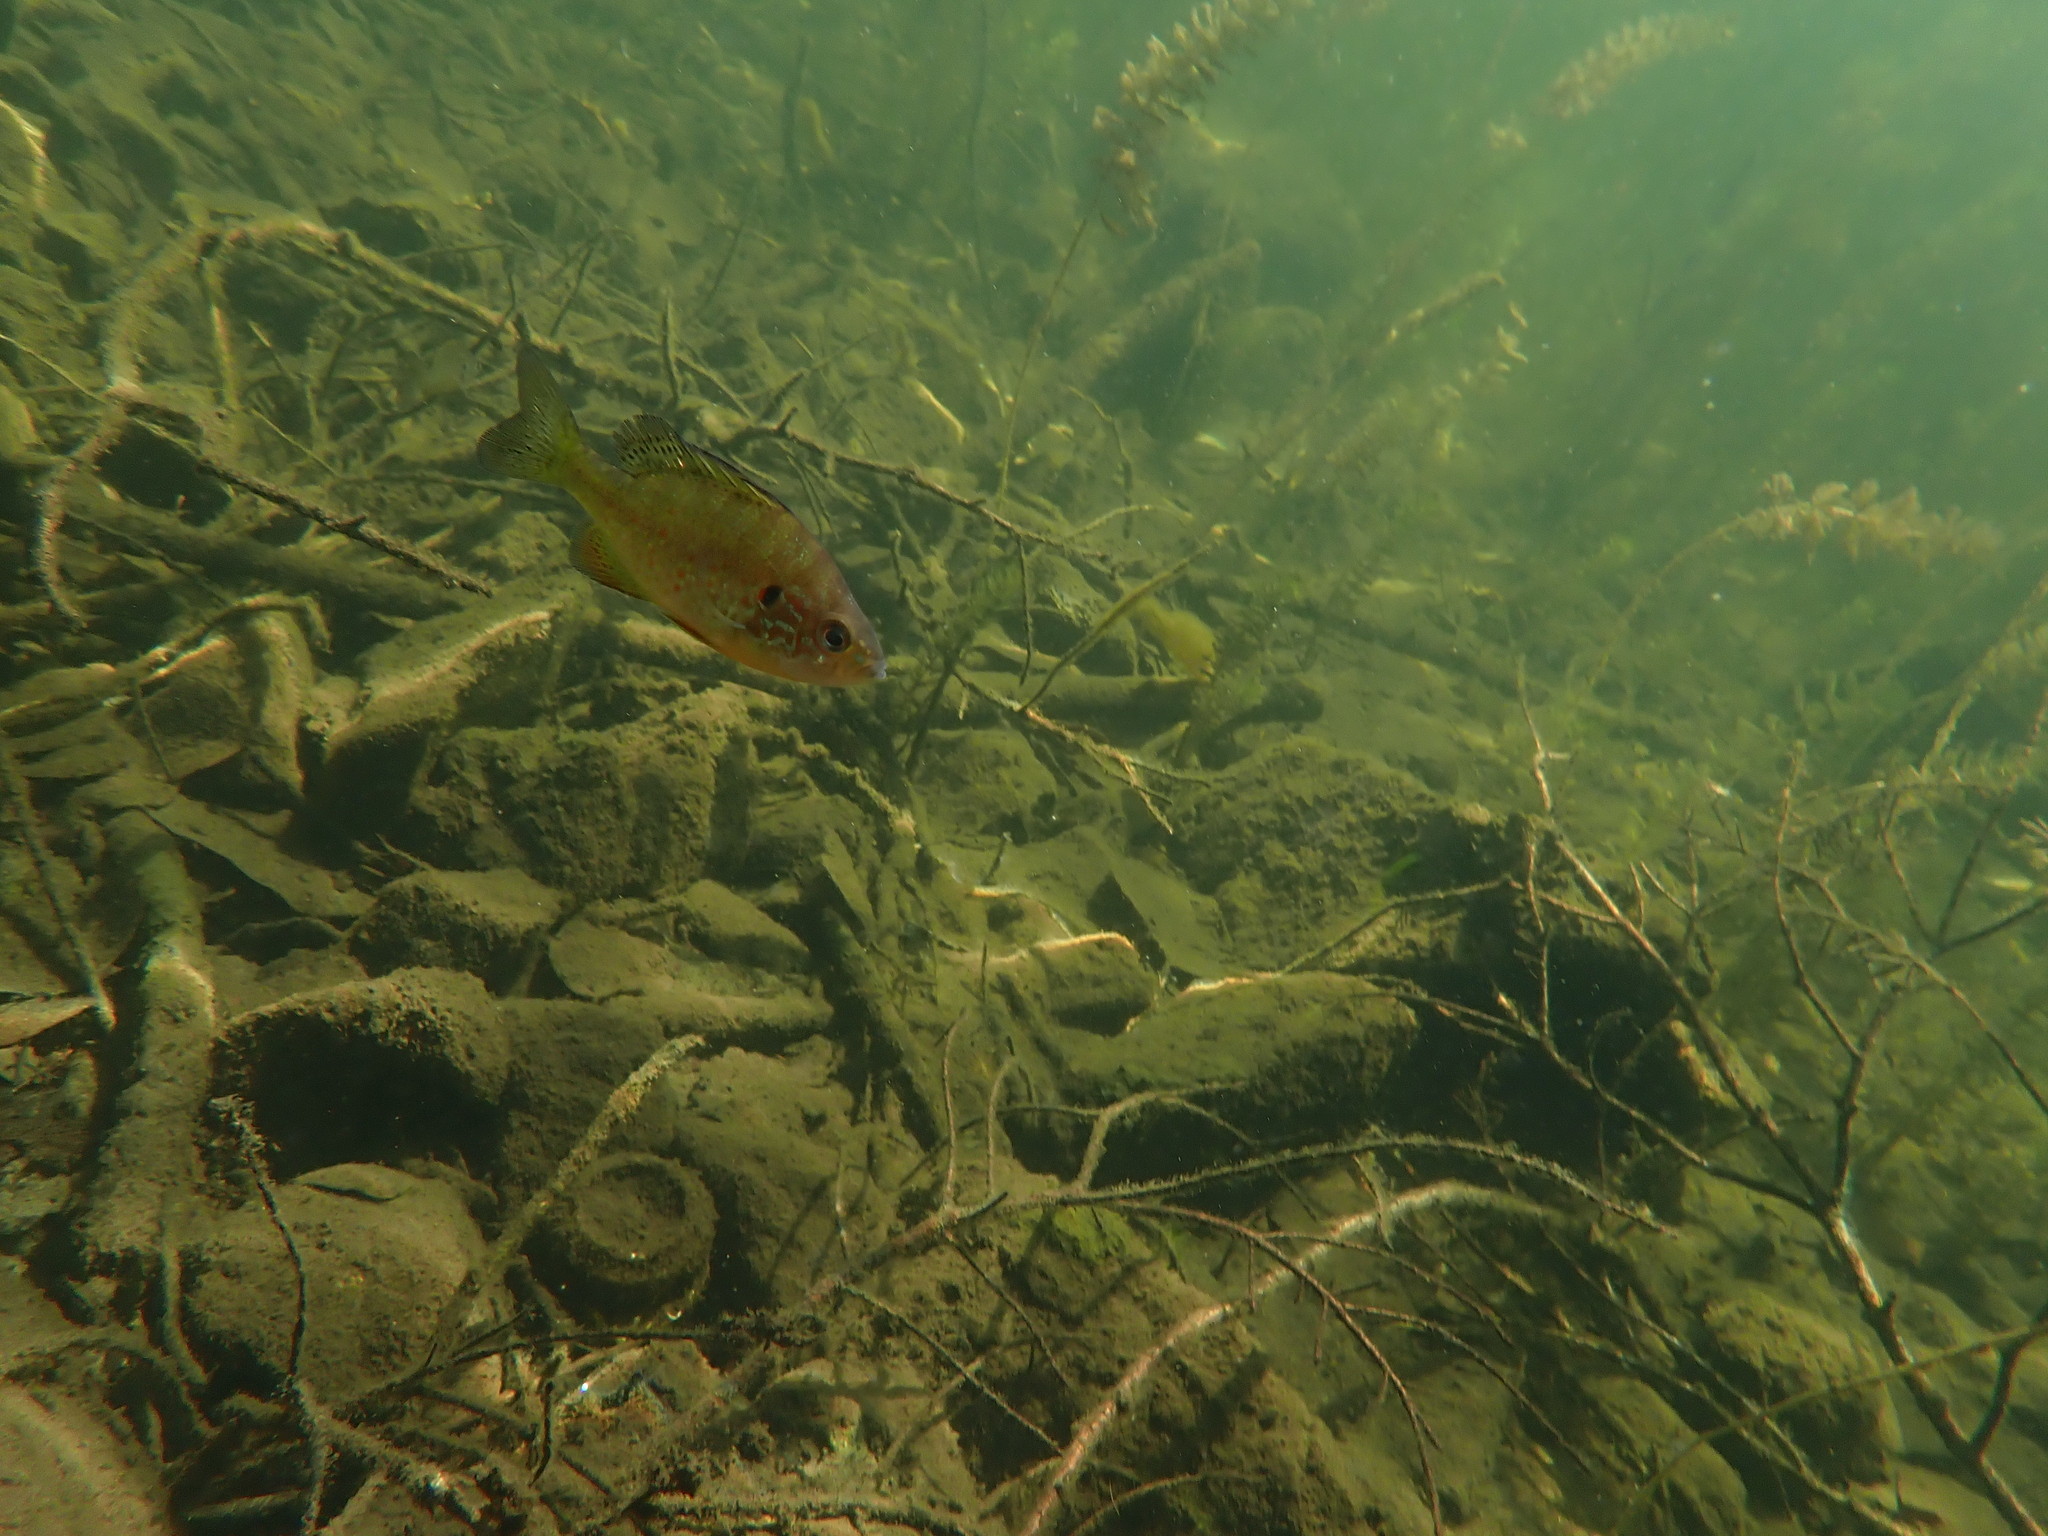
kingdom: Animalia
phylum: Chordata
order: Perciformes
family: Centrarchidae
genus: Lepomis
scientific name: Lepomis gibbosus
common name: Pumpkinseed
